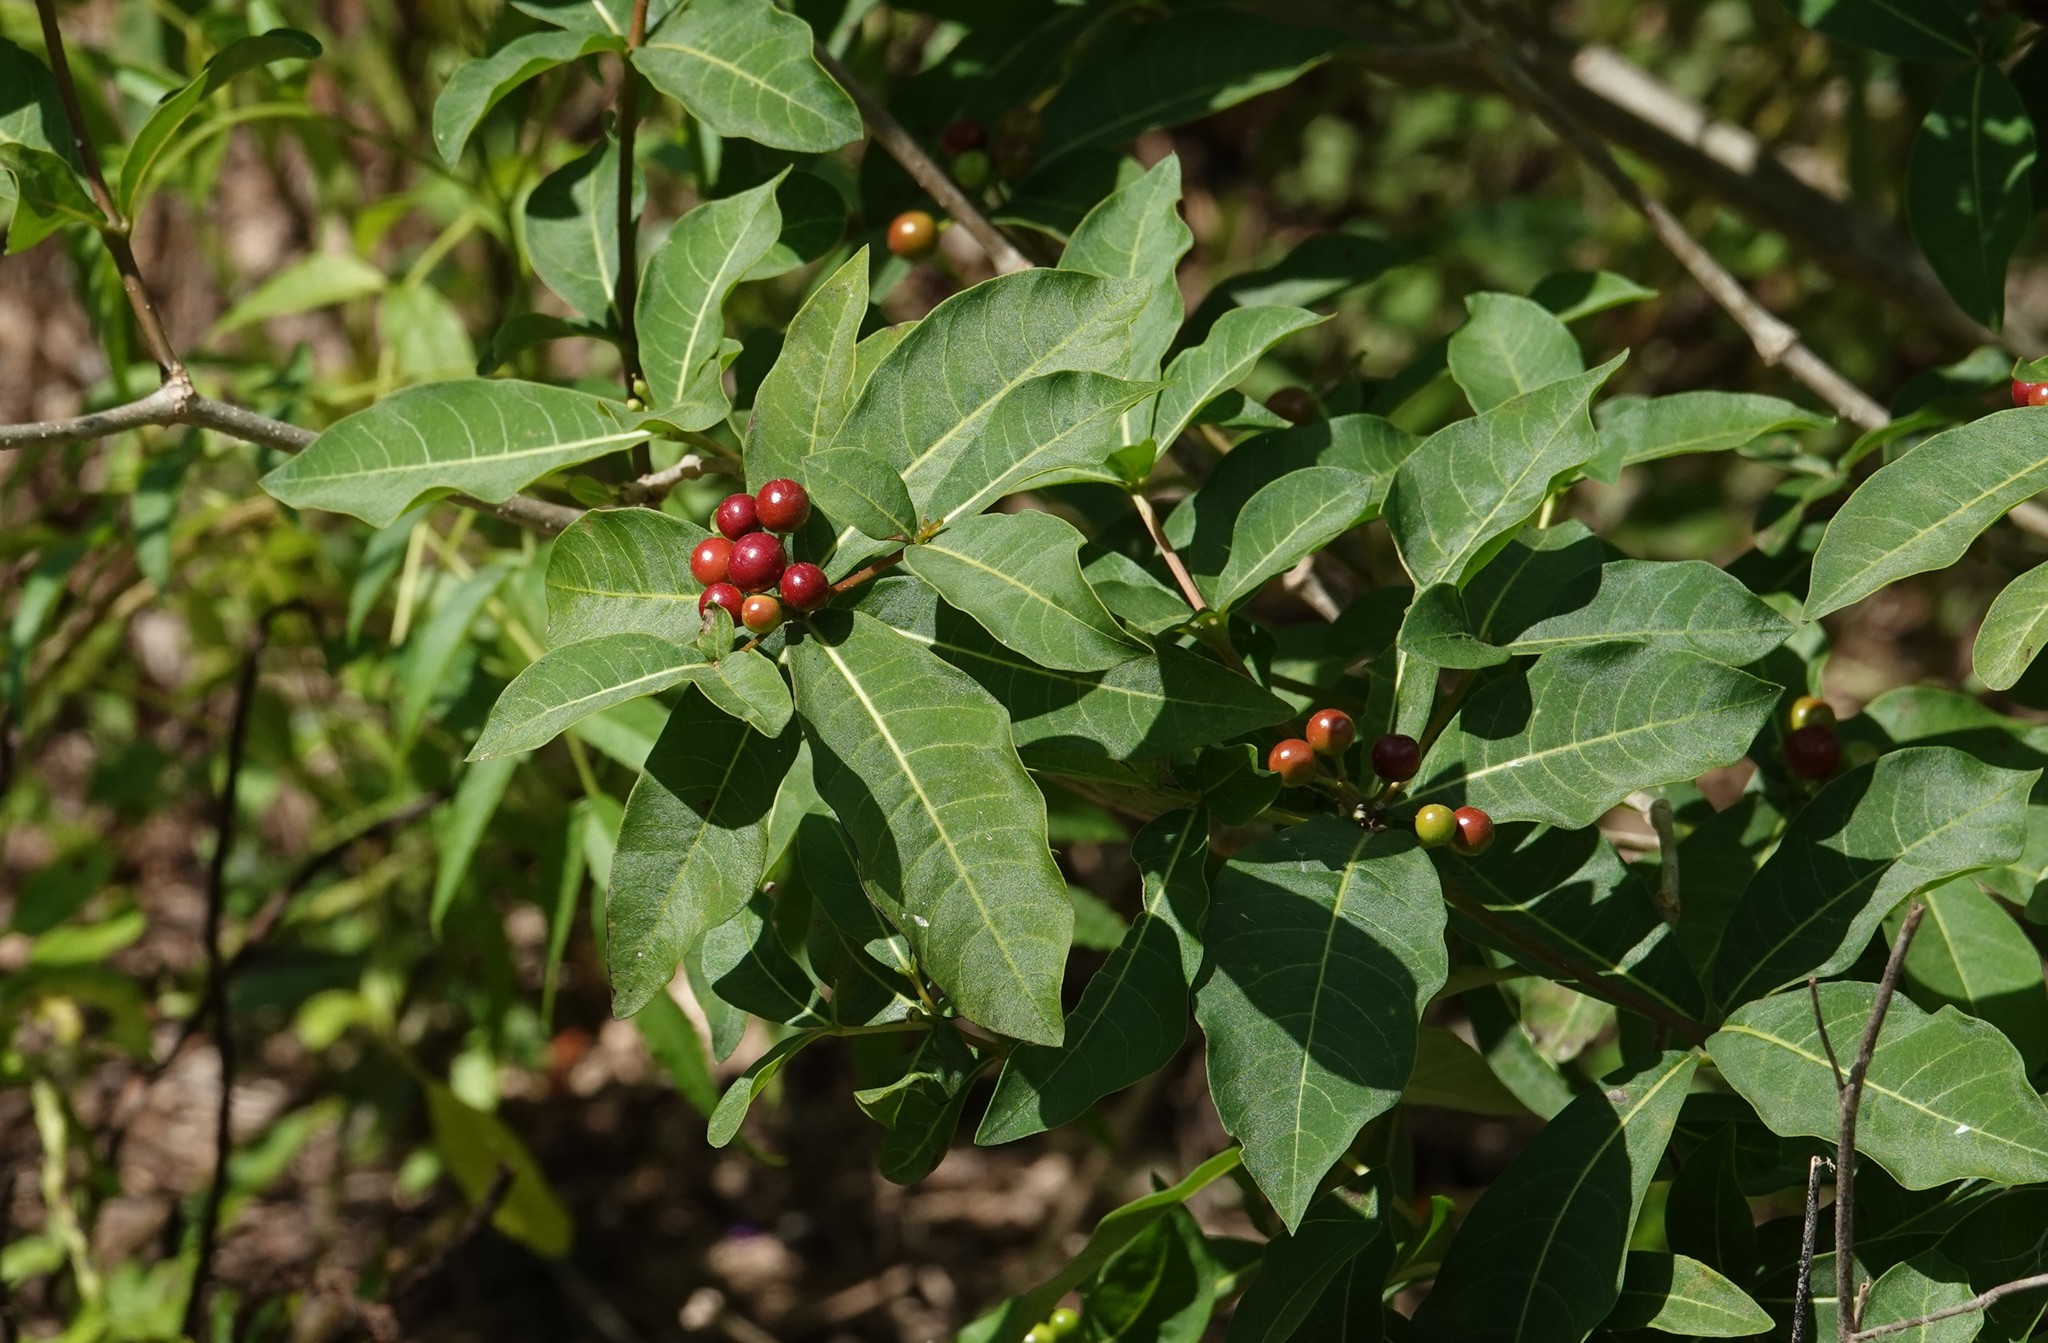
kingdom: Plantae
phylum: Tracheophyta
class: Magnoliopsida
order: Gentianales
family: Apocynaceae
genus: Rauvolfia
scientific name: Rauvolfia tetraphylla
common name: Four-leaf devil-pepper
